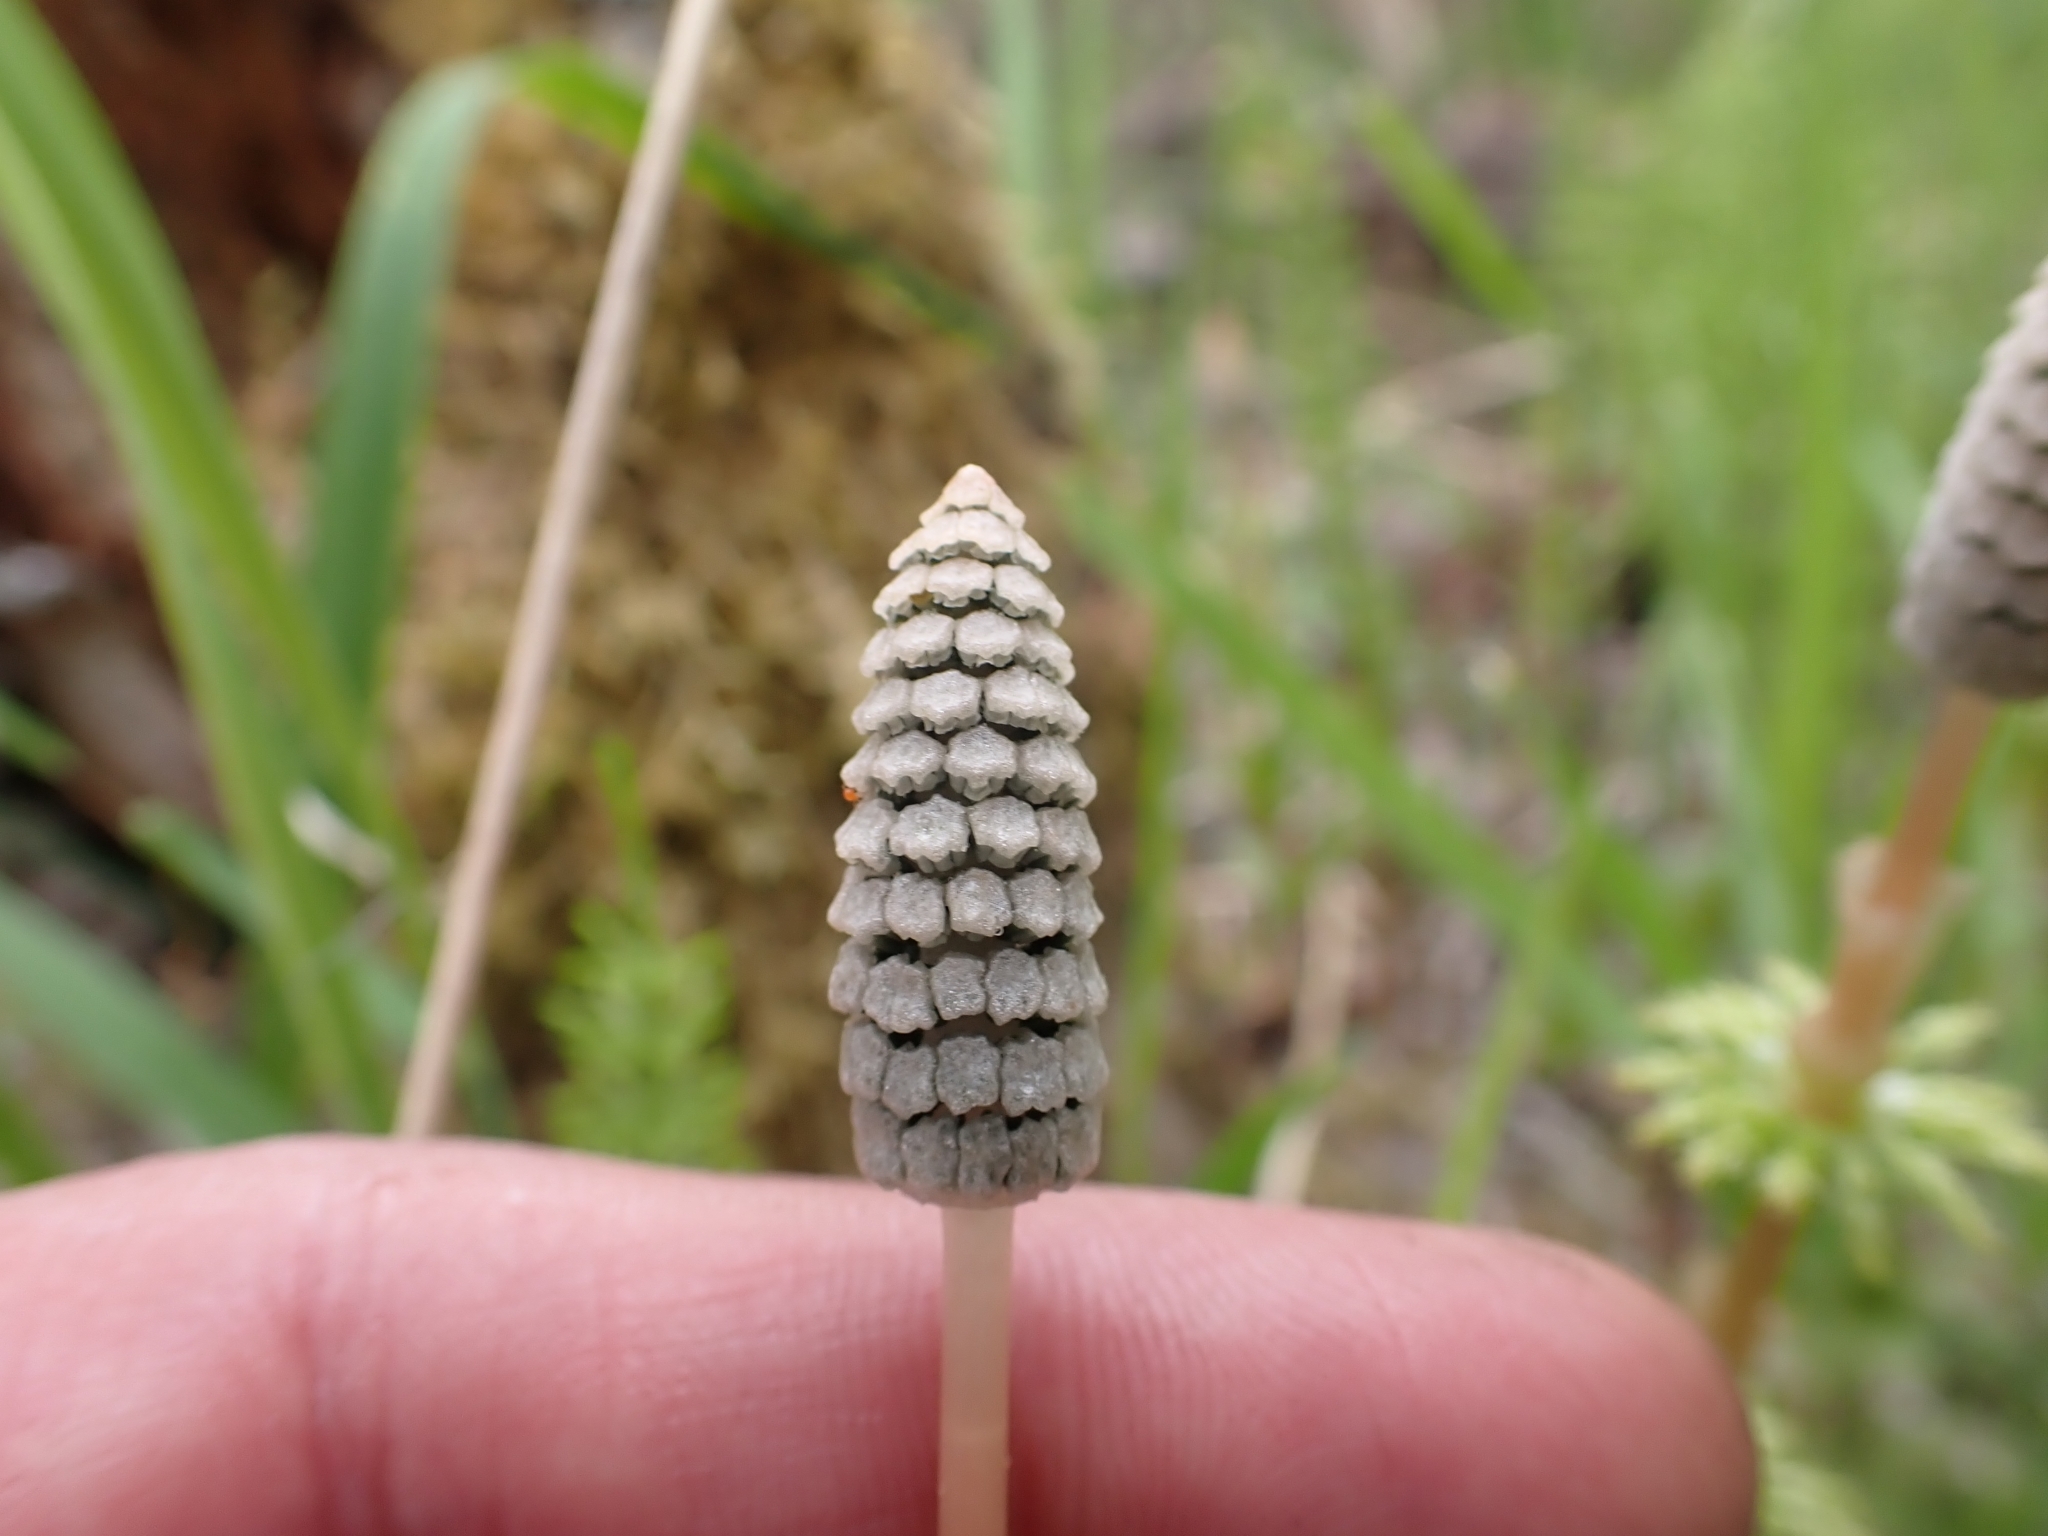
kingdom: Plantae
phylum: Tracheophyta
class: Polypodiopsida
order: Equisetales
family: Equisetaceae
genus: Equisetum
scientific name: Equisetum sylvaticum
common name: Wood horsetail
